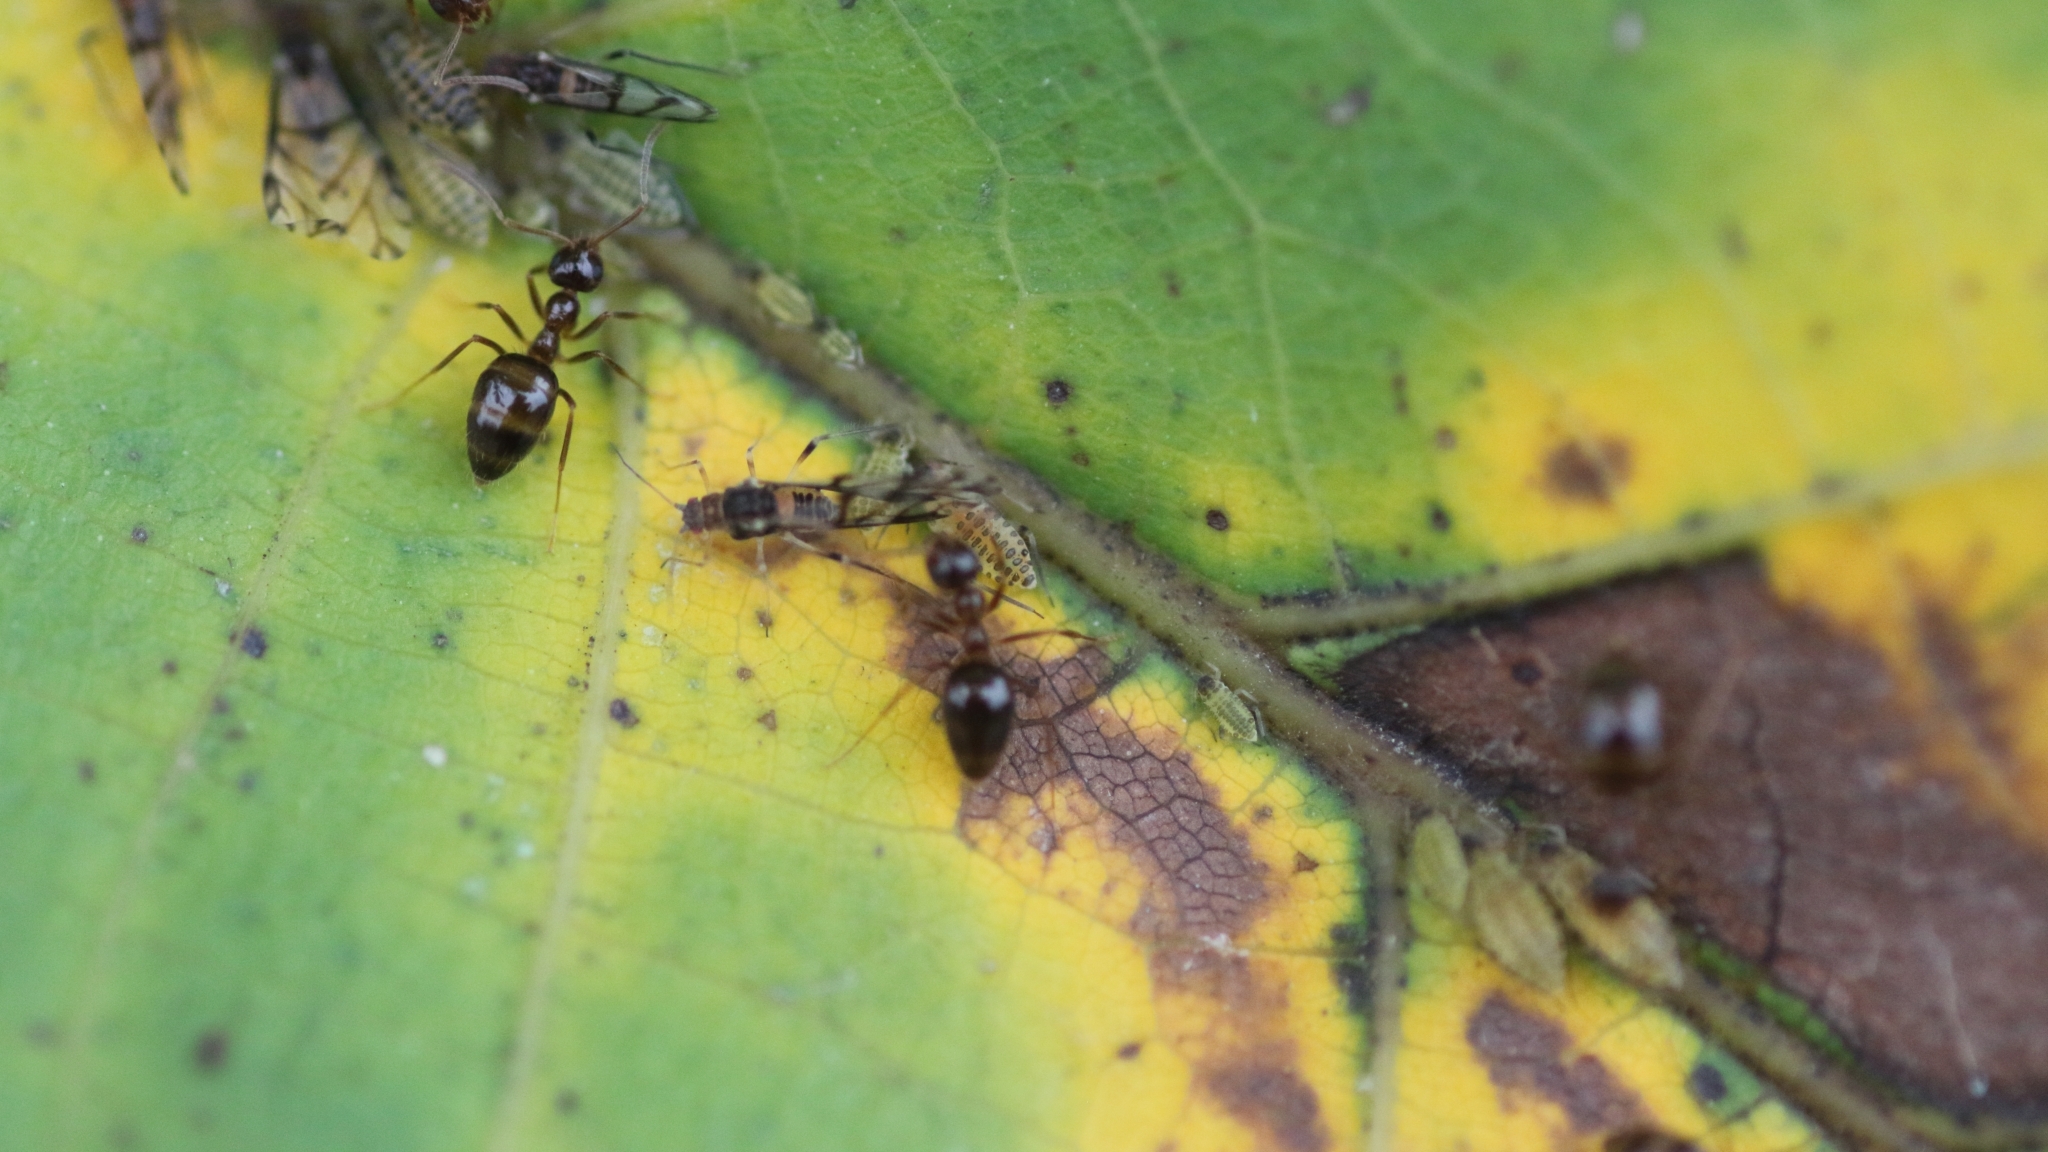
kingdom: Animalia
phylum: Arthropoda
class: Insecta
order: Hymenoptera
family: Formicidae
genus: Prenolepis
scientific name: Prenolepis nitens
